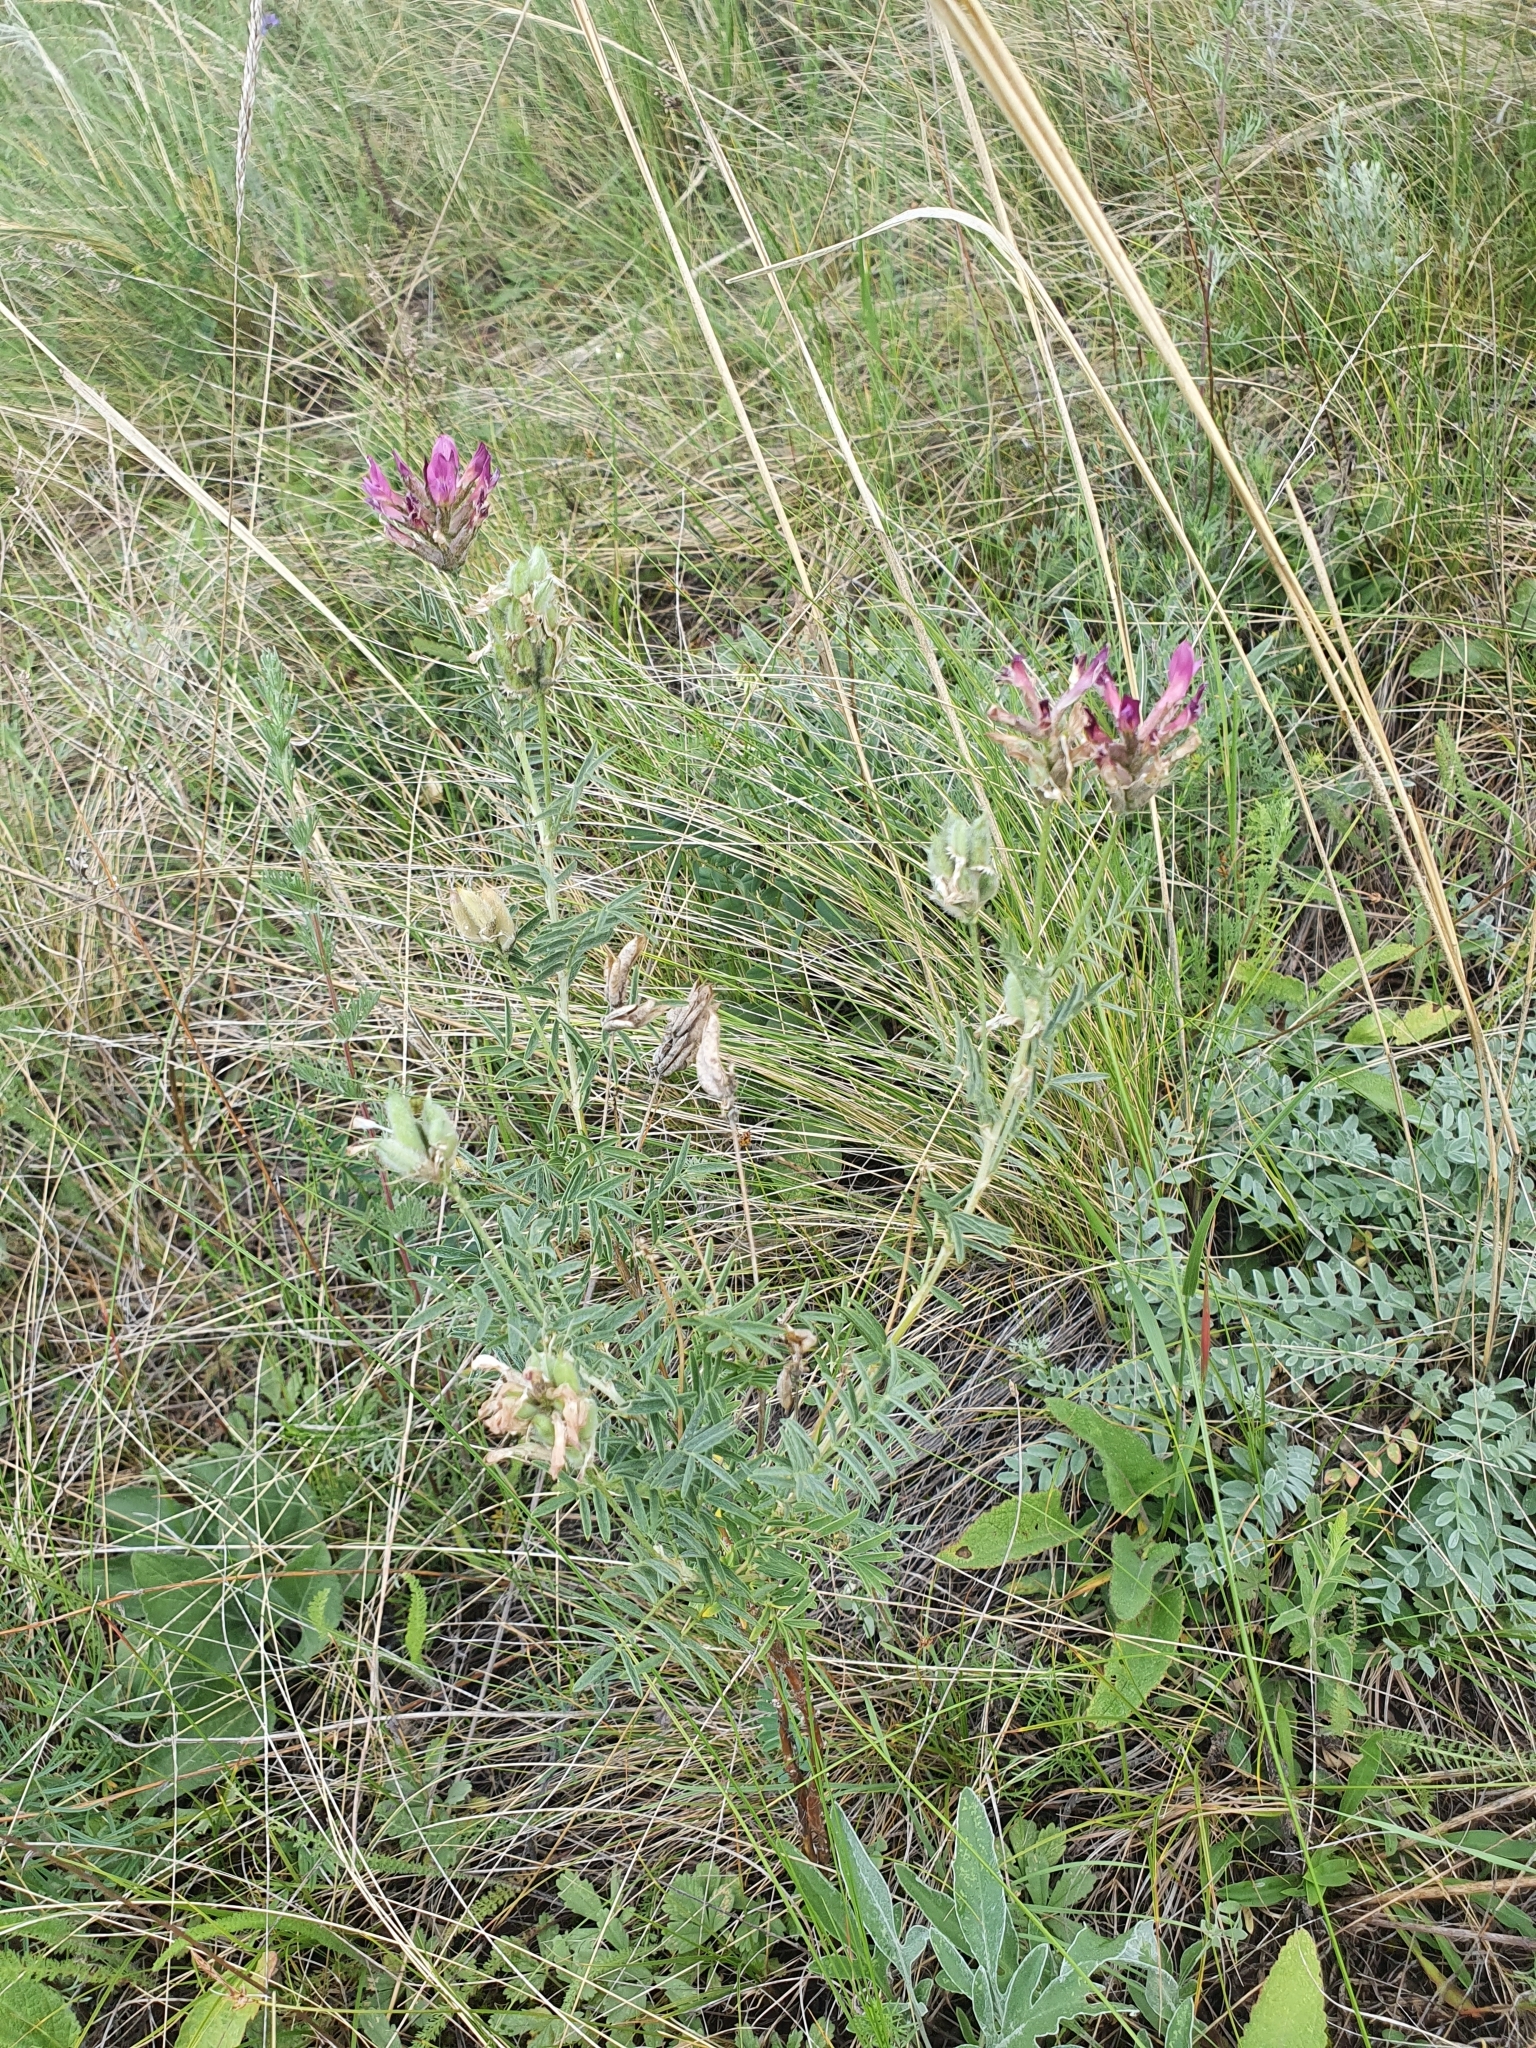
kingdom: Plantae
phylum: Tracheophyta
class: Magnoliopsida
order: Fabales
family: Fabaceae
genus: Astragalus
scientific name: Astragalus cornutus
